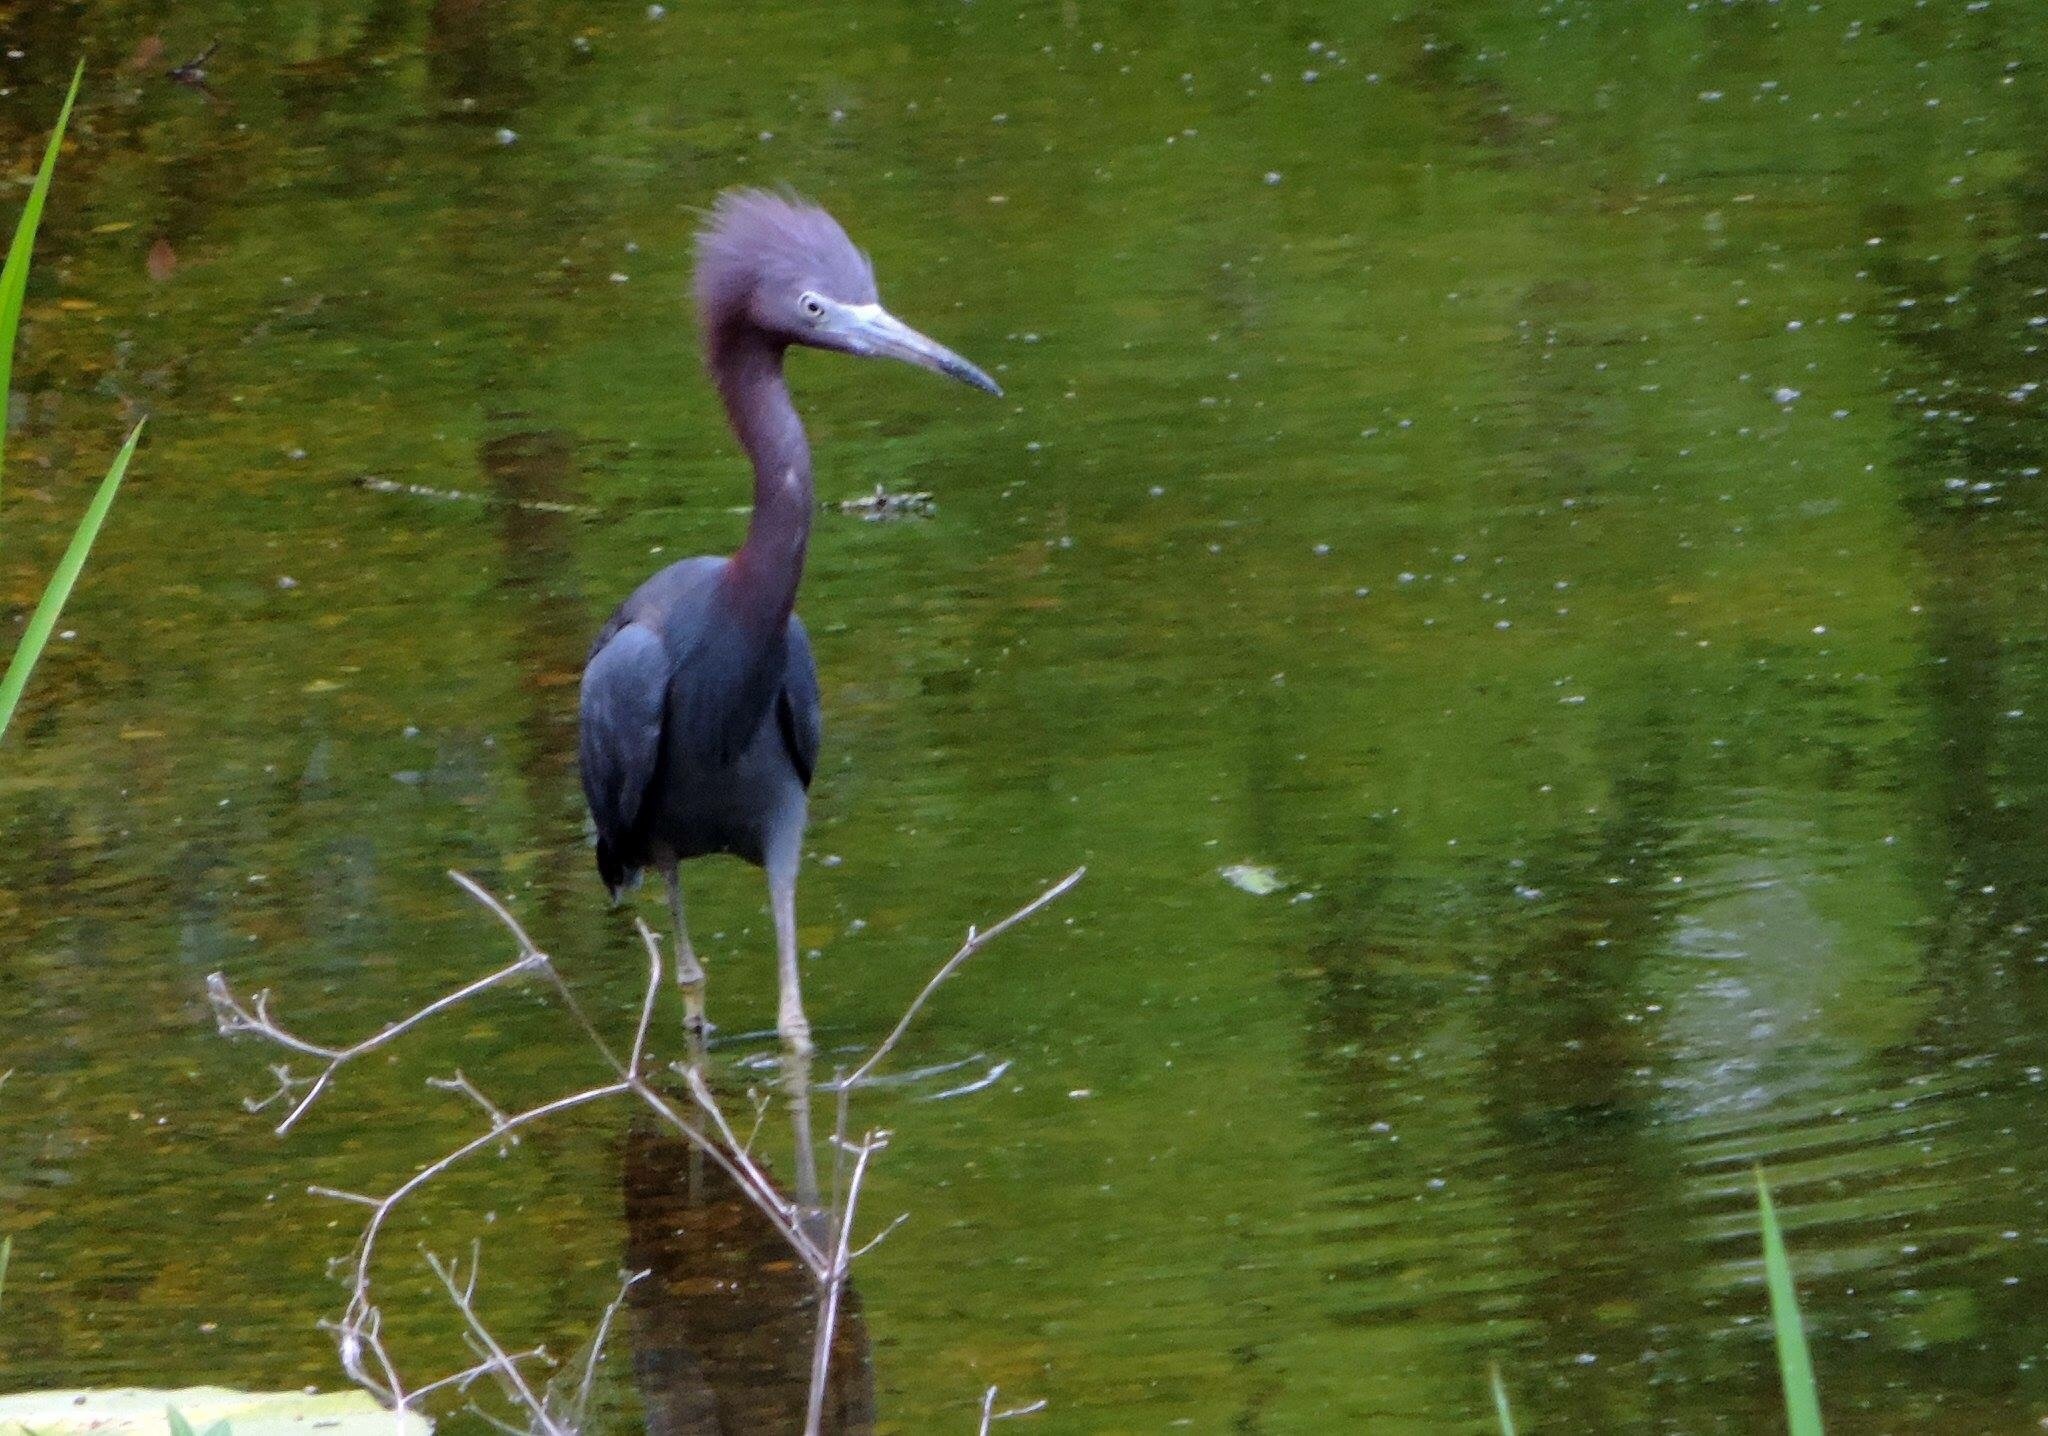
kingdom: Animalia
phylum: Chordata
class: Aves
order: Pelecaniformes
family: Ardeidae
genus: Egretta
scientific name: Egretta caerulea
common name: Little blue heron
